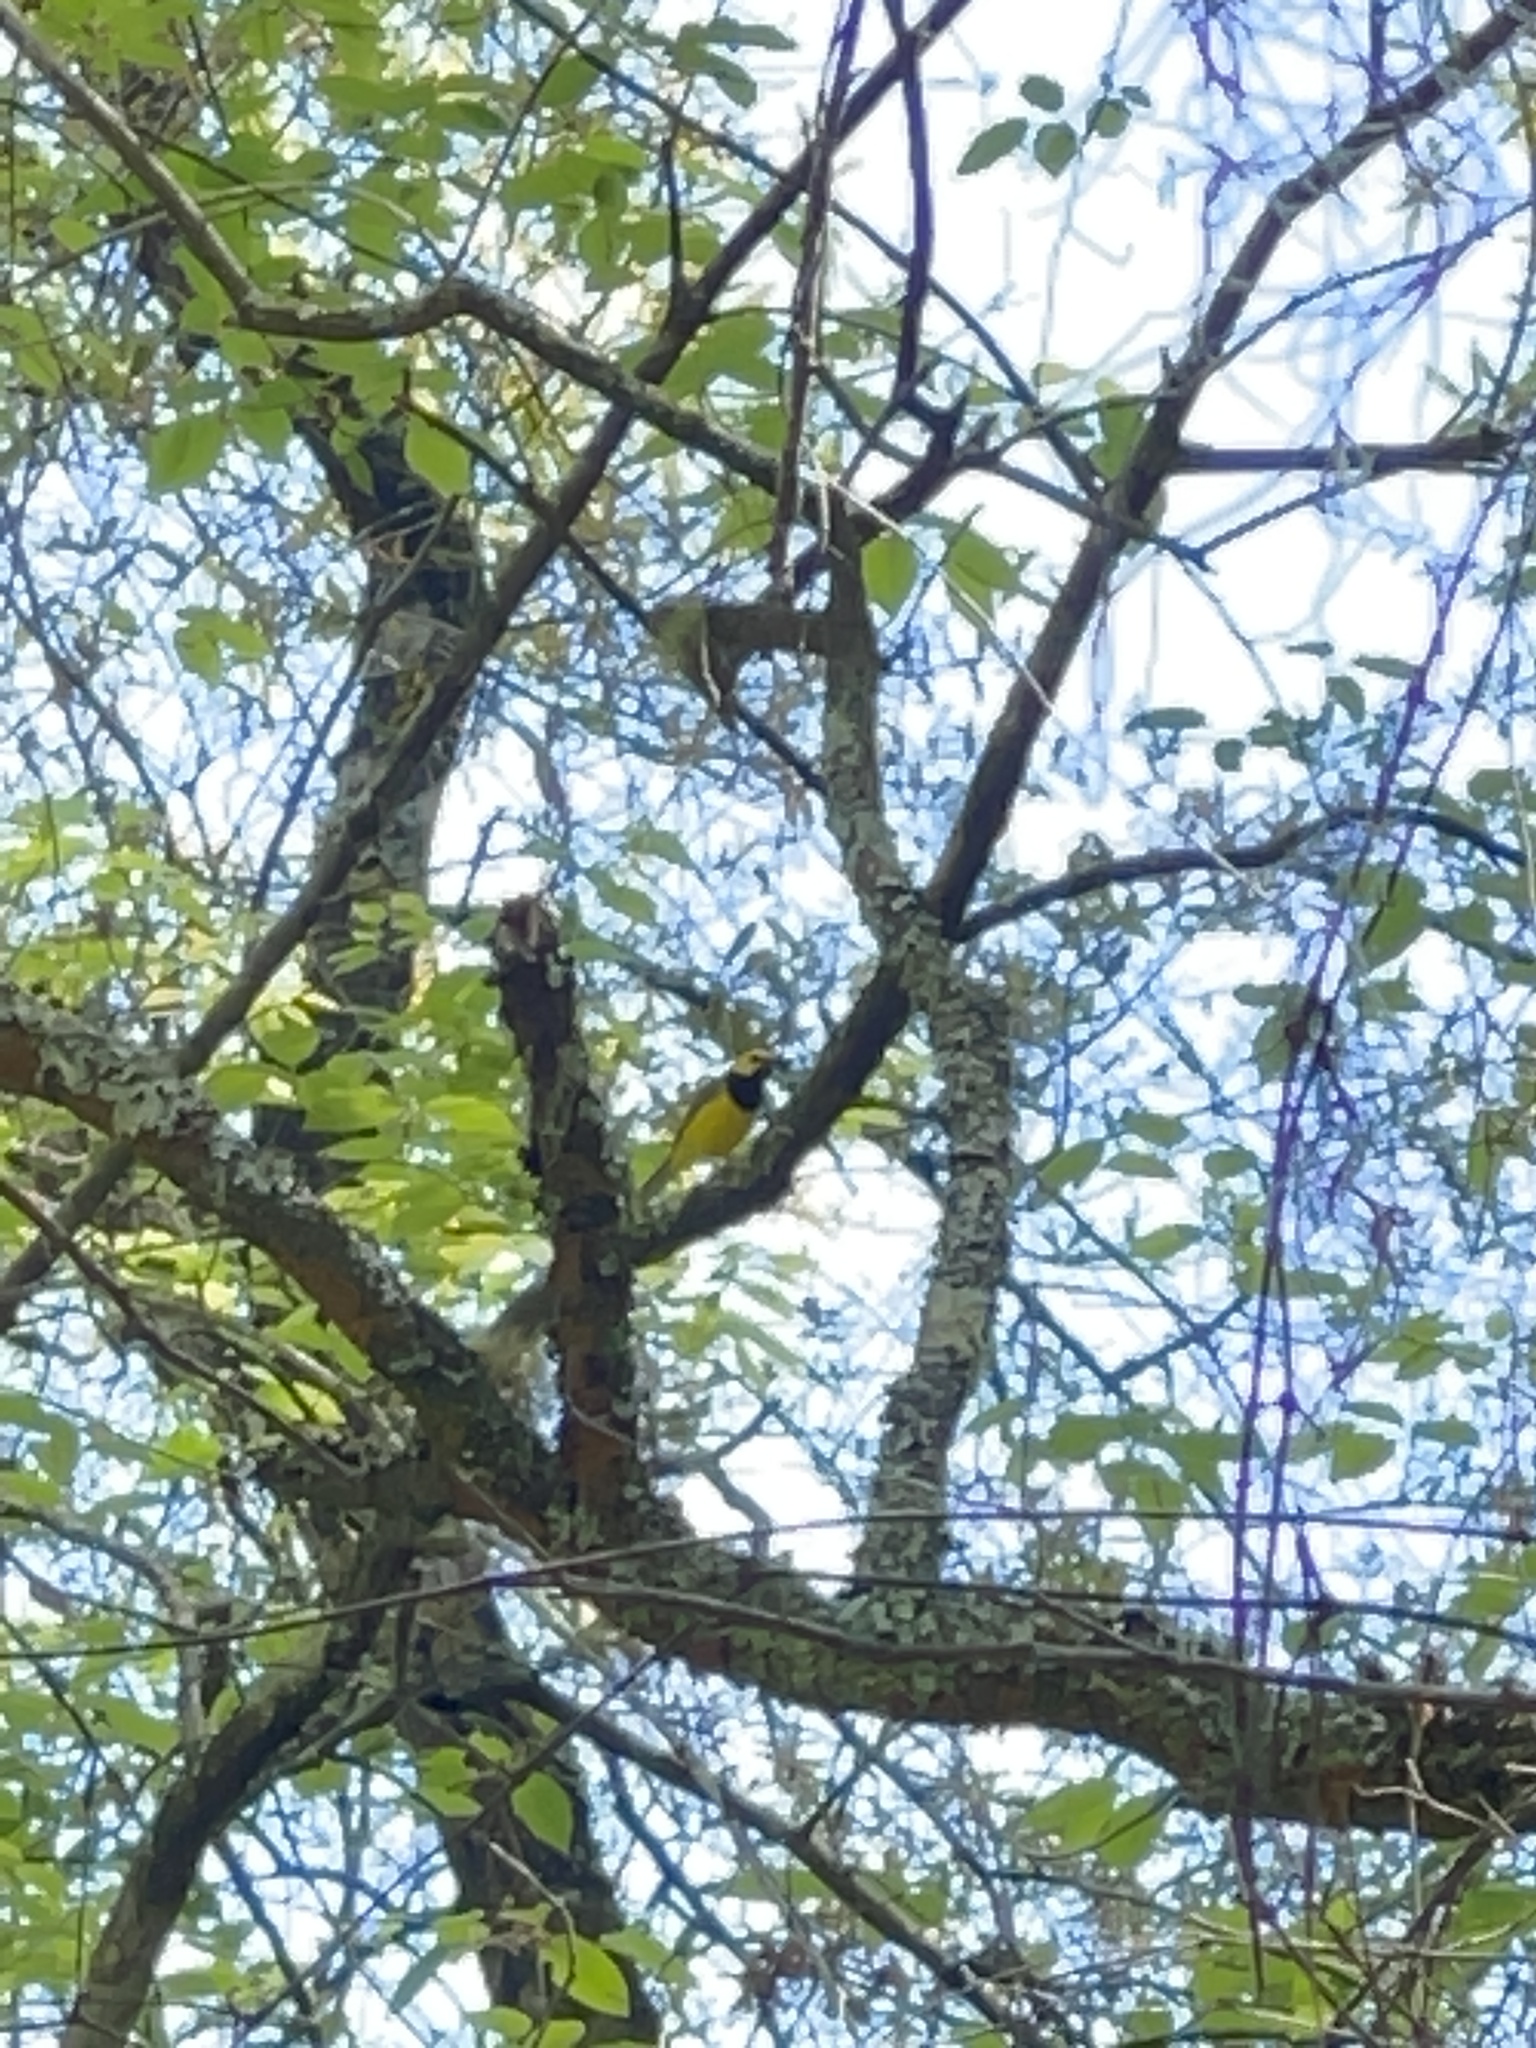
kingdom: Animalia
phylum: Chordata
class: Aves
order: Passeriformes
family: Parulidae
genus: Setophaga
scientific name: Setophaga citrina
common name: Hooded warbler
